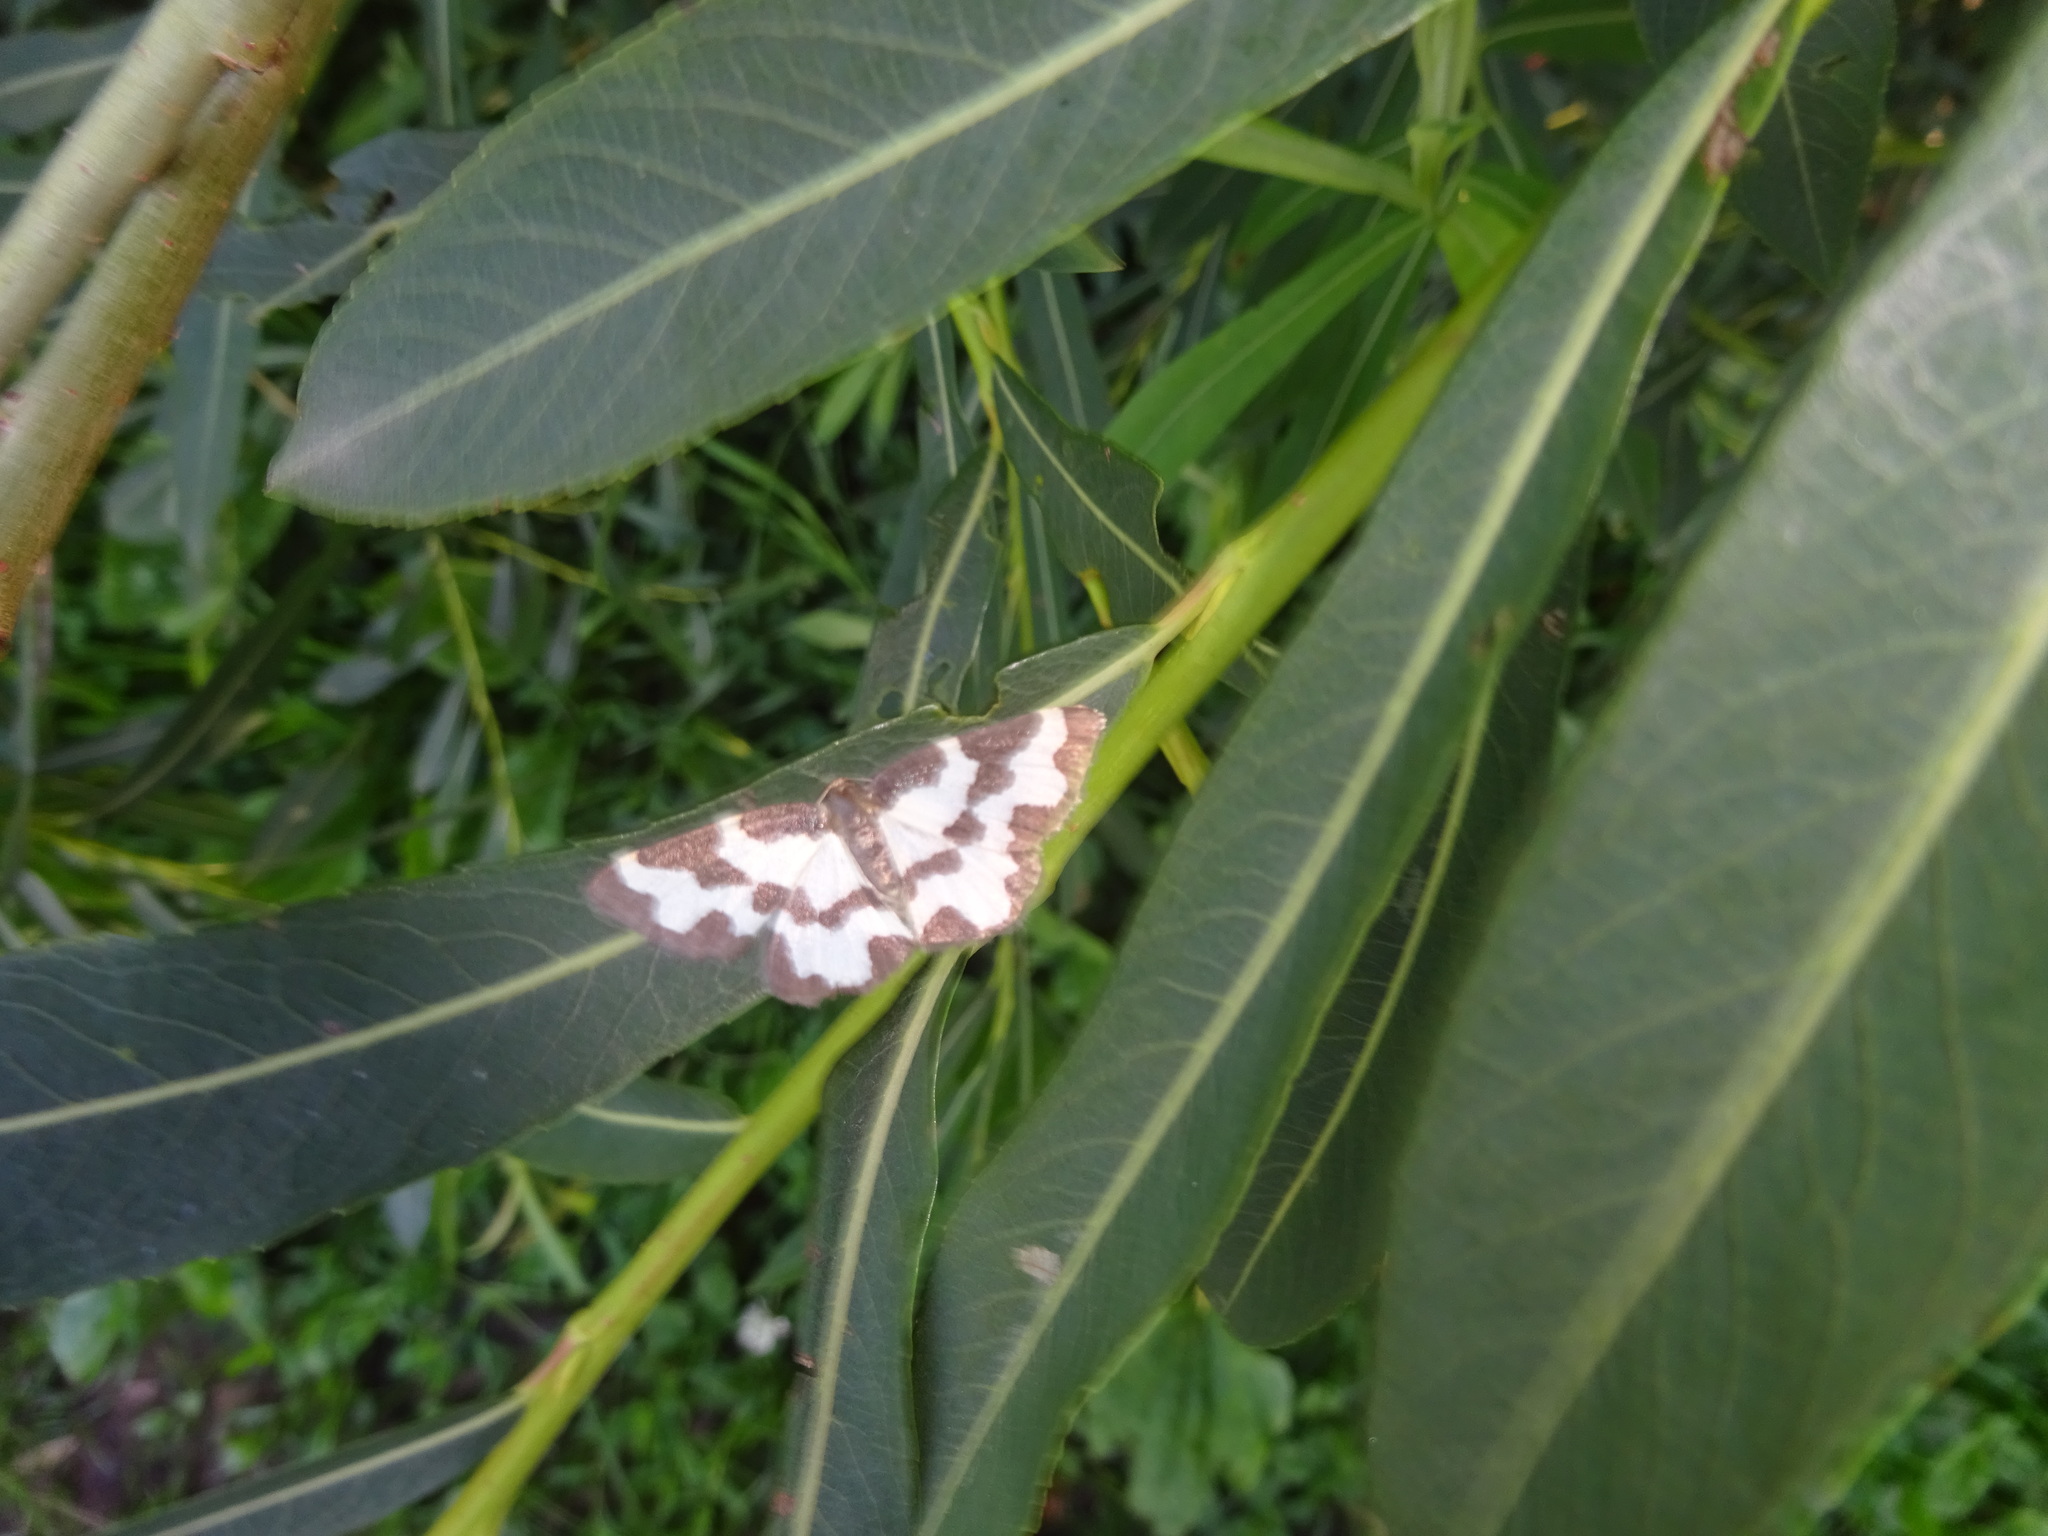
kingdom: Animalia
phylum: Arthropoda
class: Insecta
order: Lepidoptera
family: Geometridae
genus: Lomaspilis
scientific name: Lomaspilis marginata
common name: Clouded border
